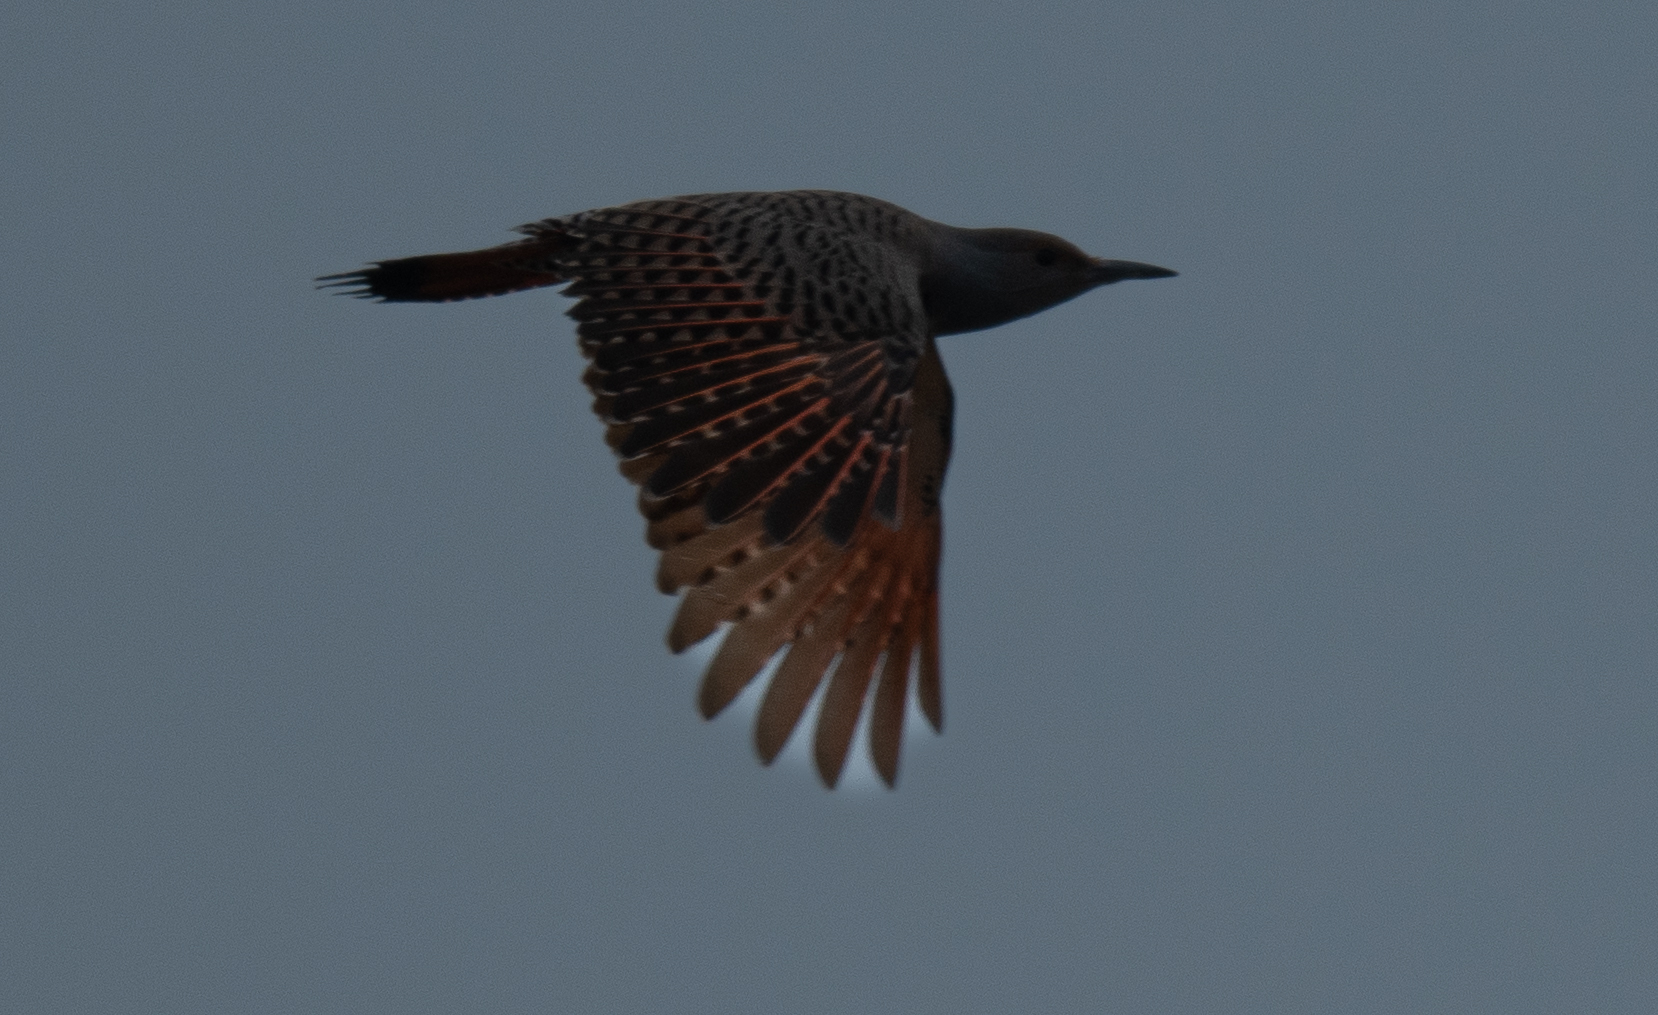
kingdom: Animalia
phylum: Chordata
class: Aves
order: Piciformes
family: Picidae
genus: Colaptes
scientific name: Colaptes auratus
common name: Northern flicker
